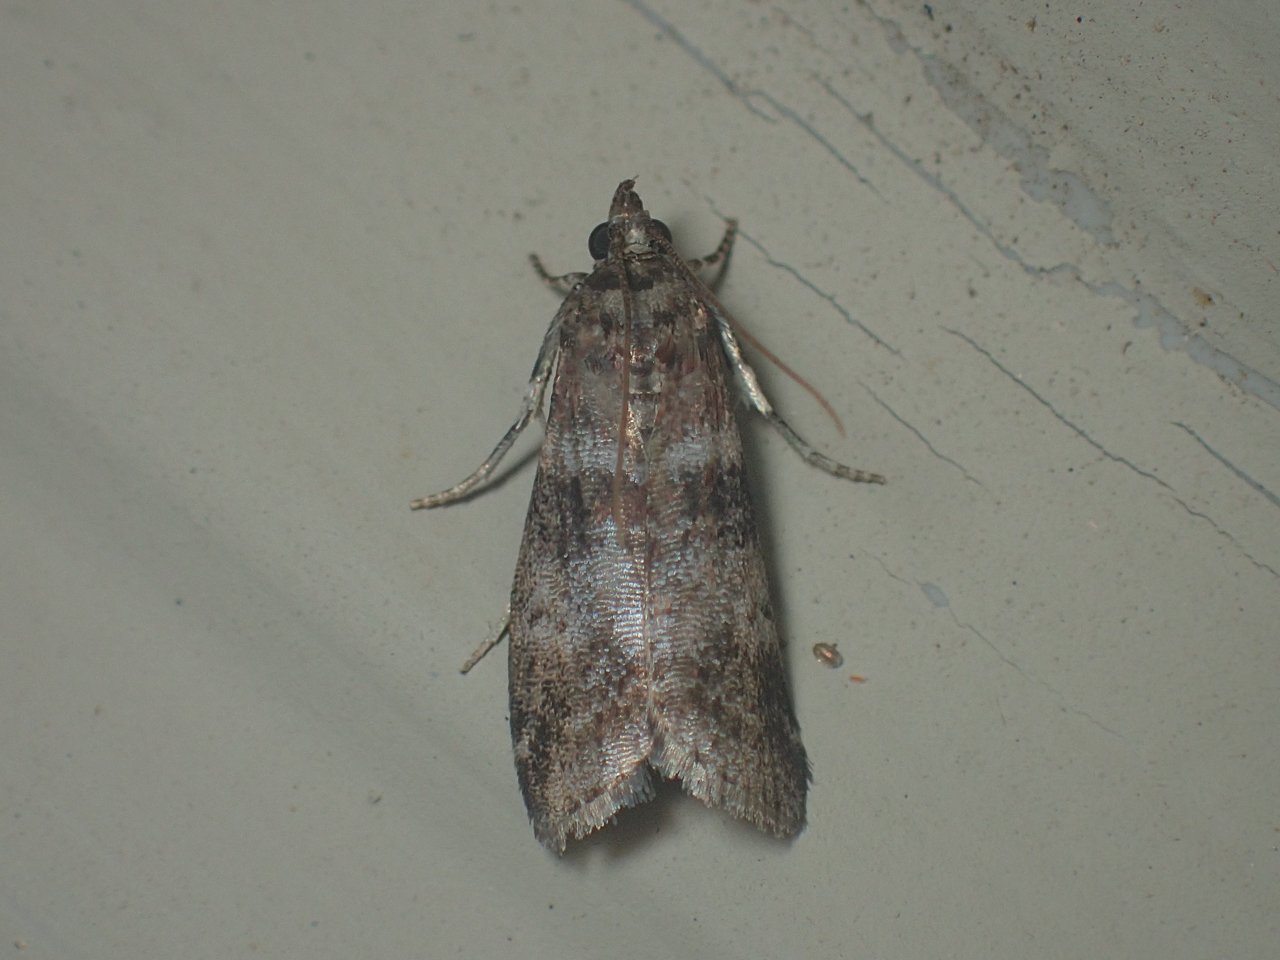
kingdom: Animalia
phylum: Arthropoda
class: Insecta
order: Lepidoptera
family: Pyralidae
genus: Sciota
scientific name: Sciota uvinella
